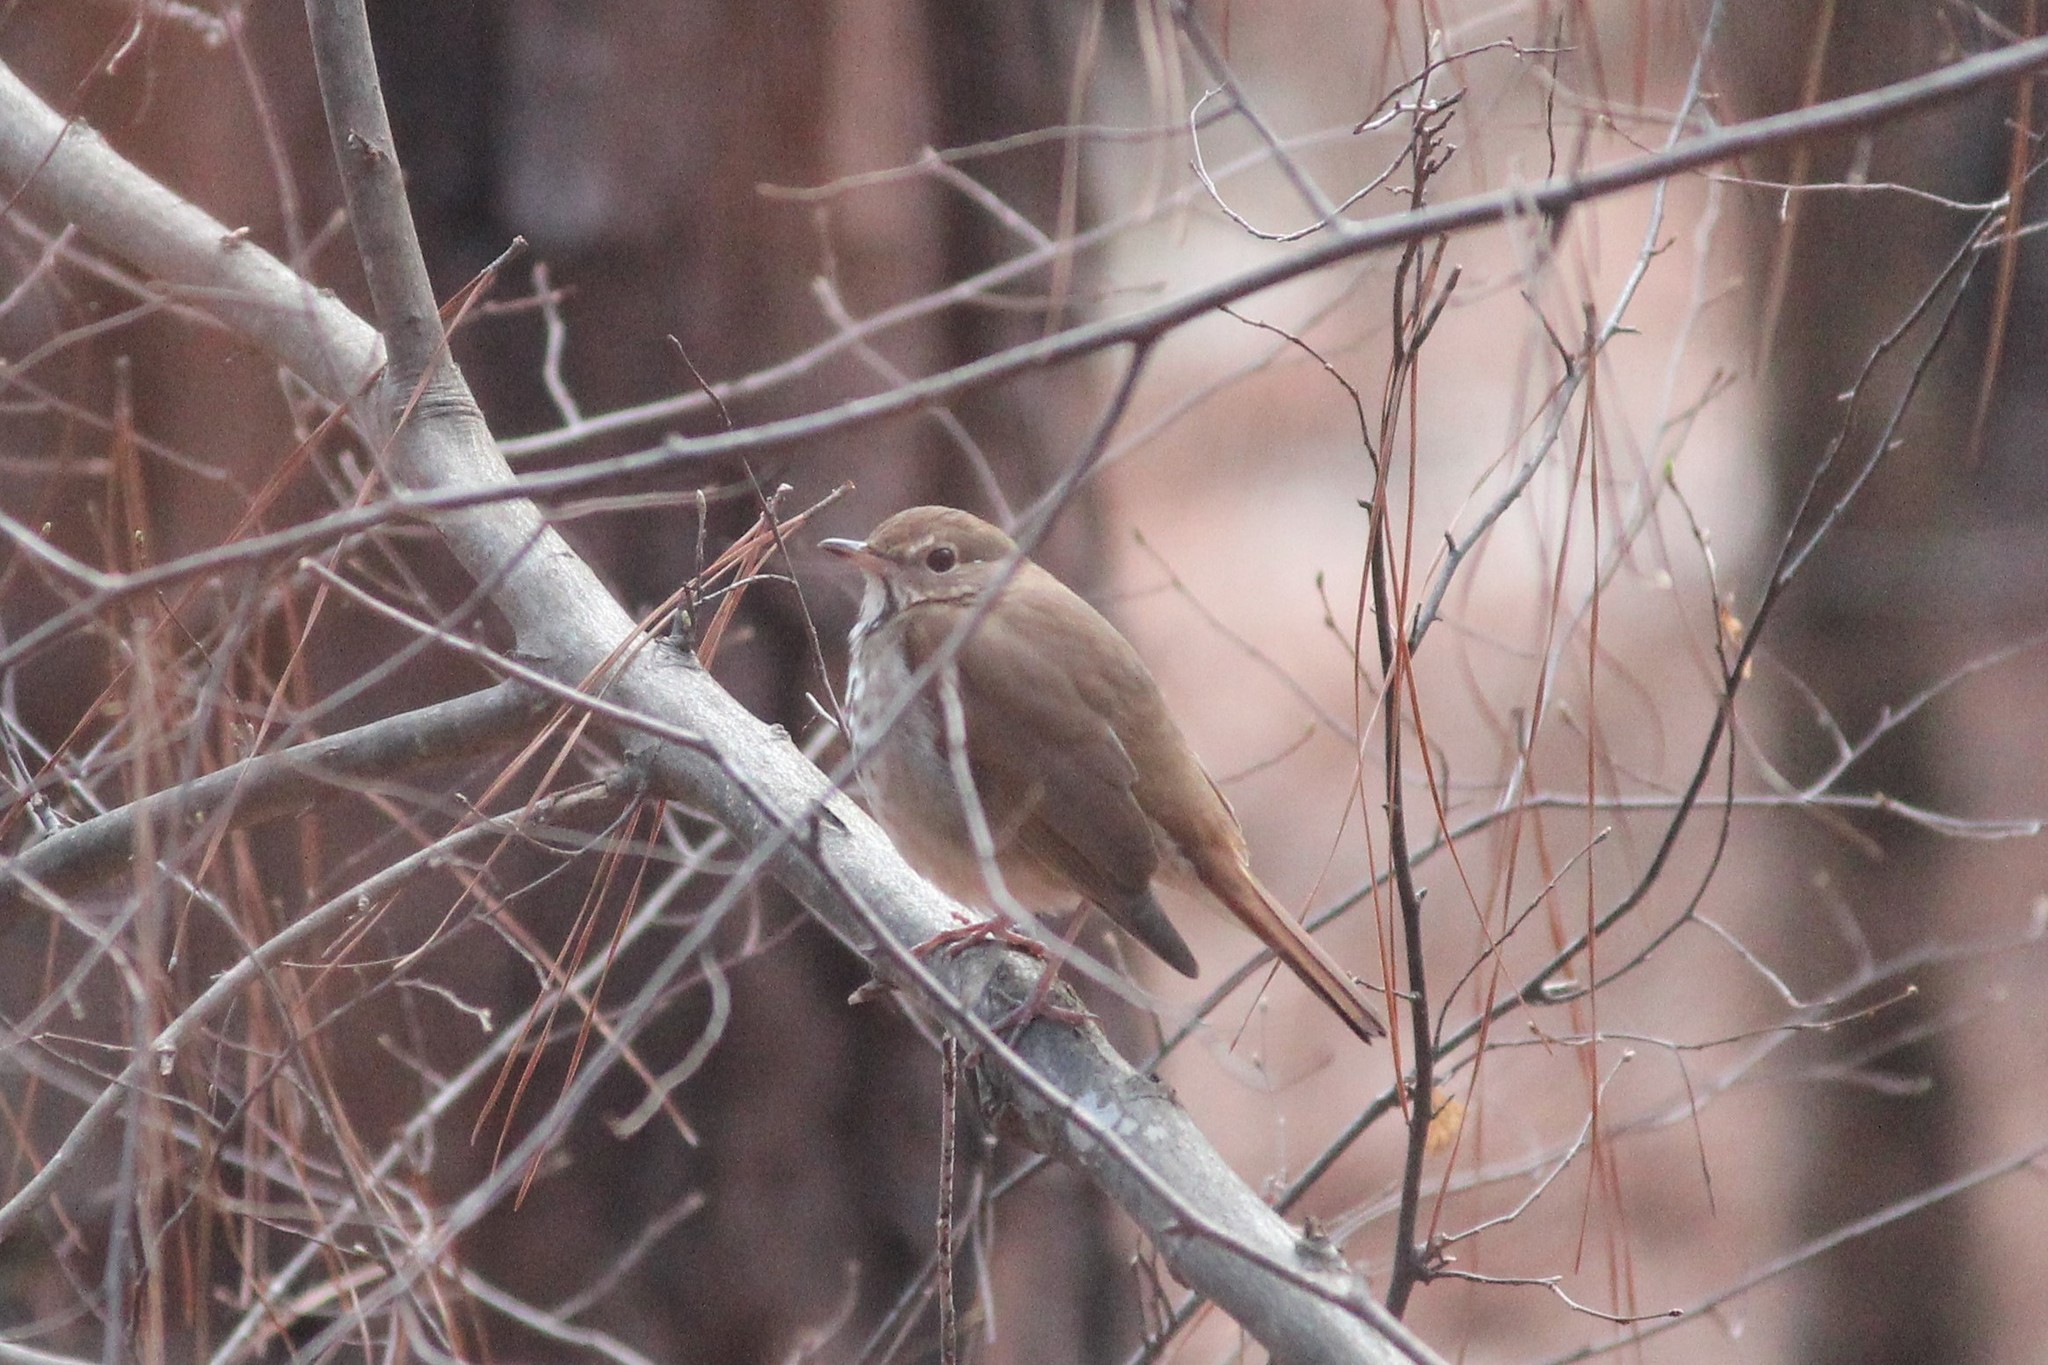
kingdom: Animalia
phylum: Chordata
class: Aves
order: Passeriformes
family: Turdidae
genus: Catharus
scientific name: Catharus guttatus
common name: Hermit thrush
